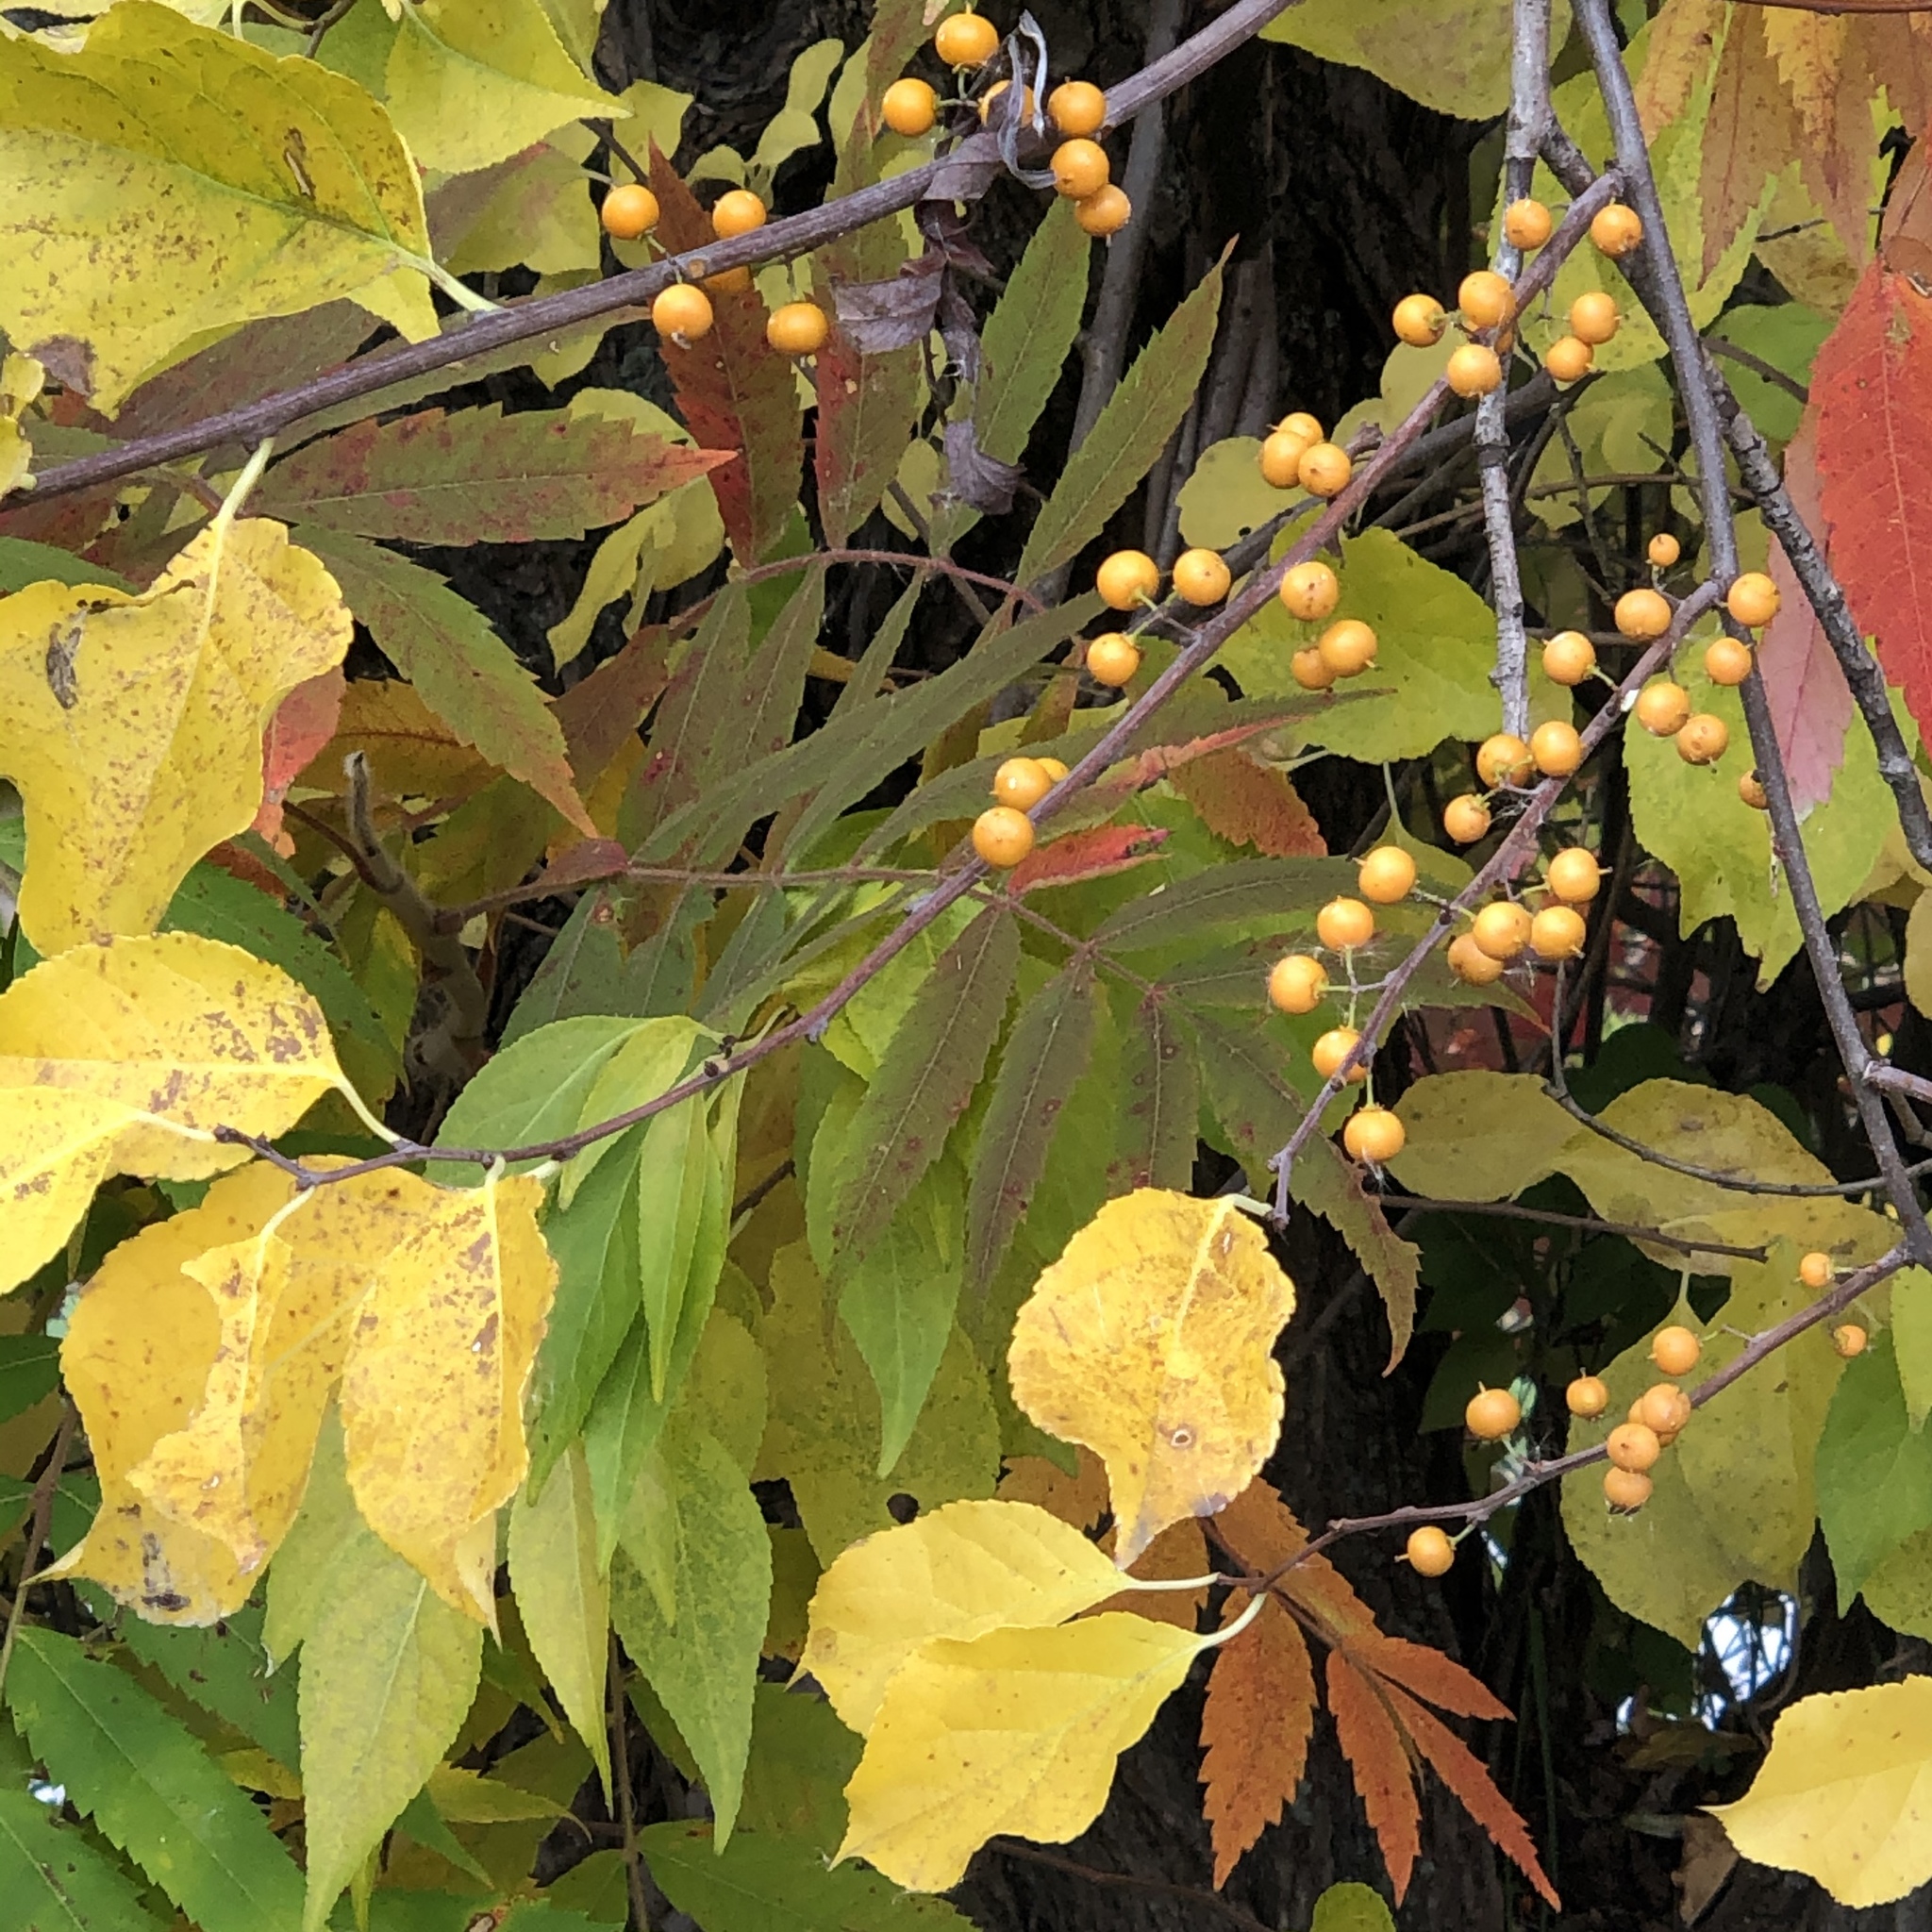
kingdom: Plantae
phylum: Tracheophyta
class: Magnoliopsida
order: Celastrales
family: Celastraceae
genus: Celastrus
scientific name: Celastrus orbiculatus
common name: Oriental bittersweet
